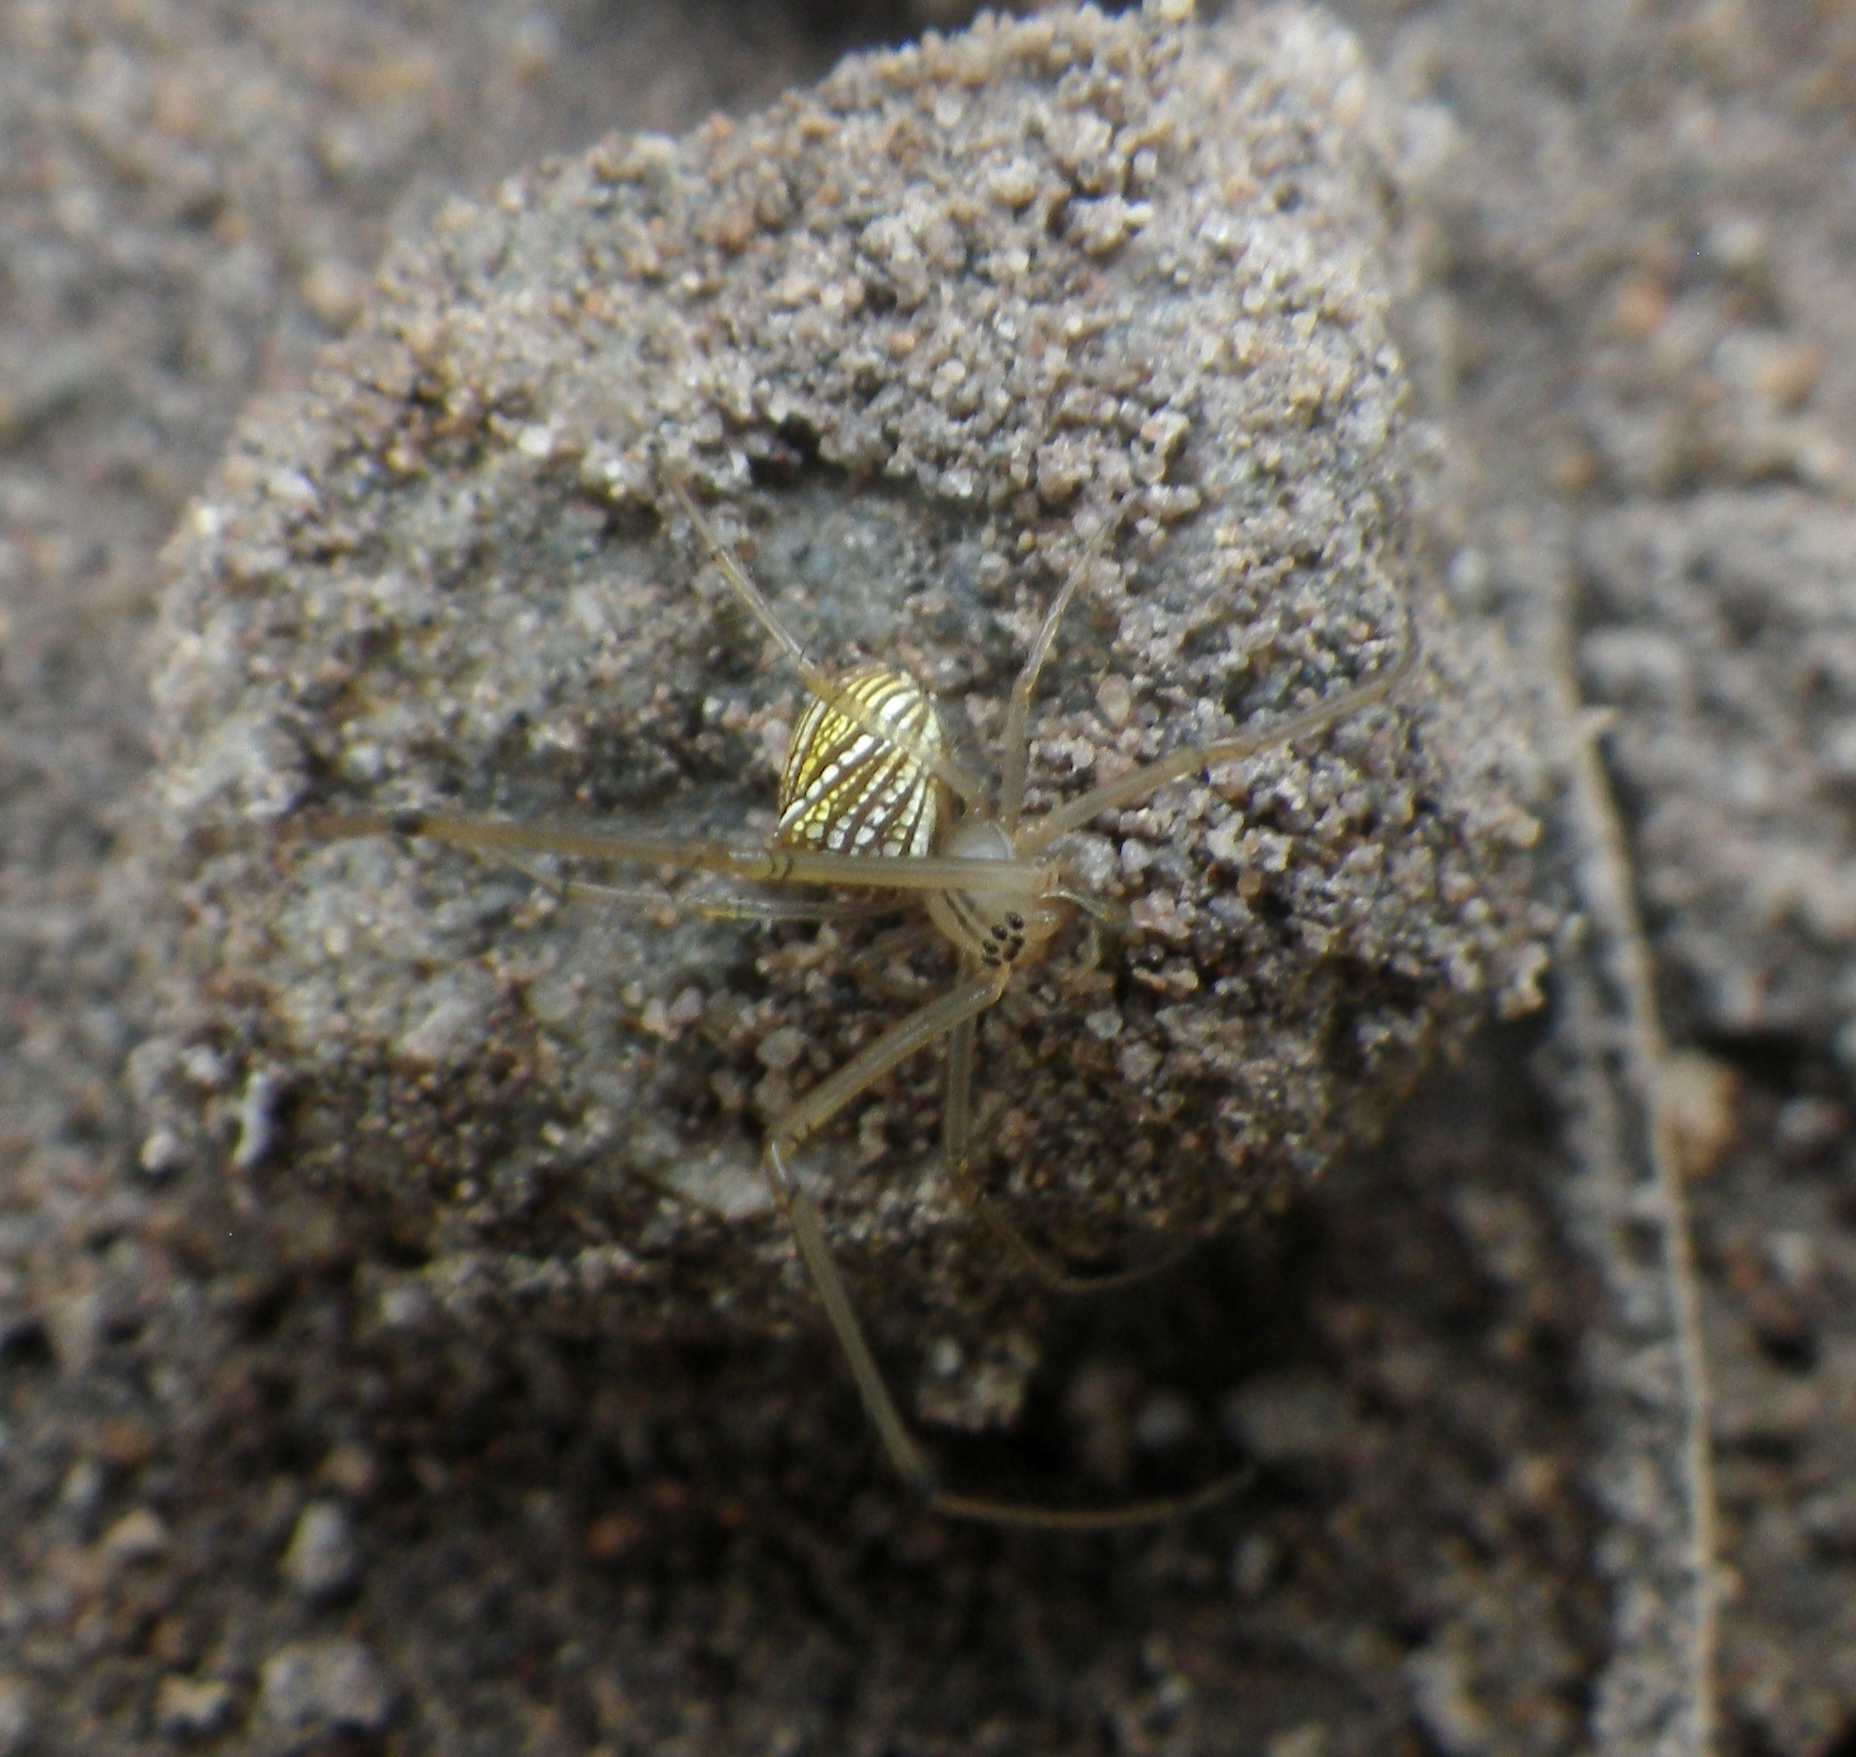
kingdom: Animalia
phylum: Arthropoda
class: Arachnida
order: Araneae
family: Tetragnathidae
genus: Tylorida
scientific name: Tylorida striata
